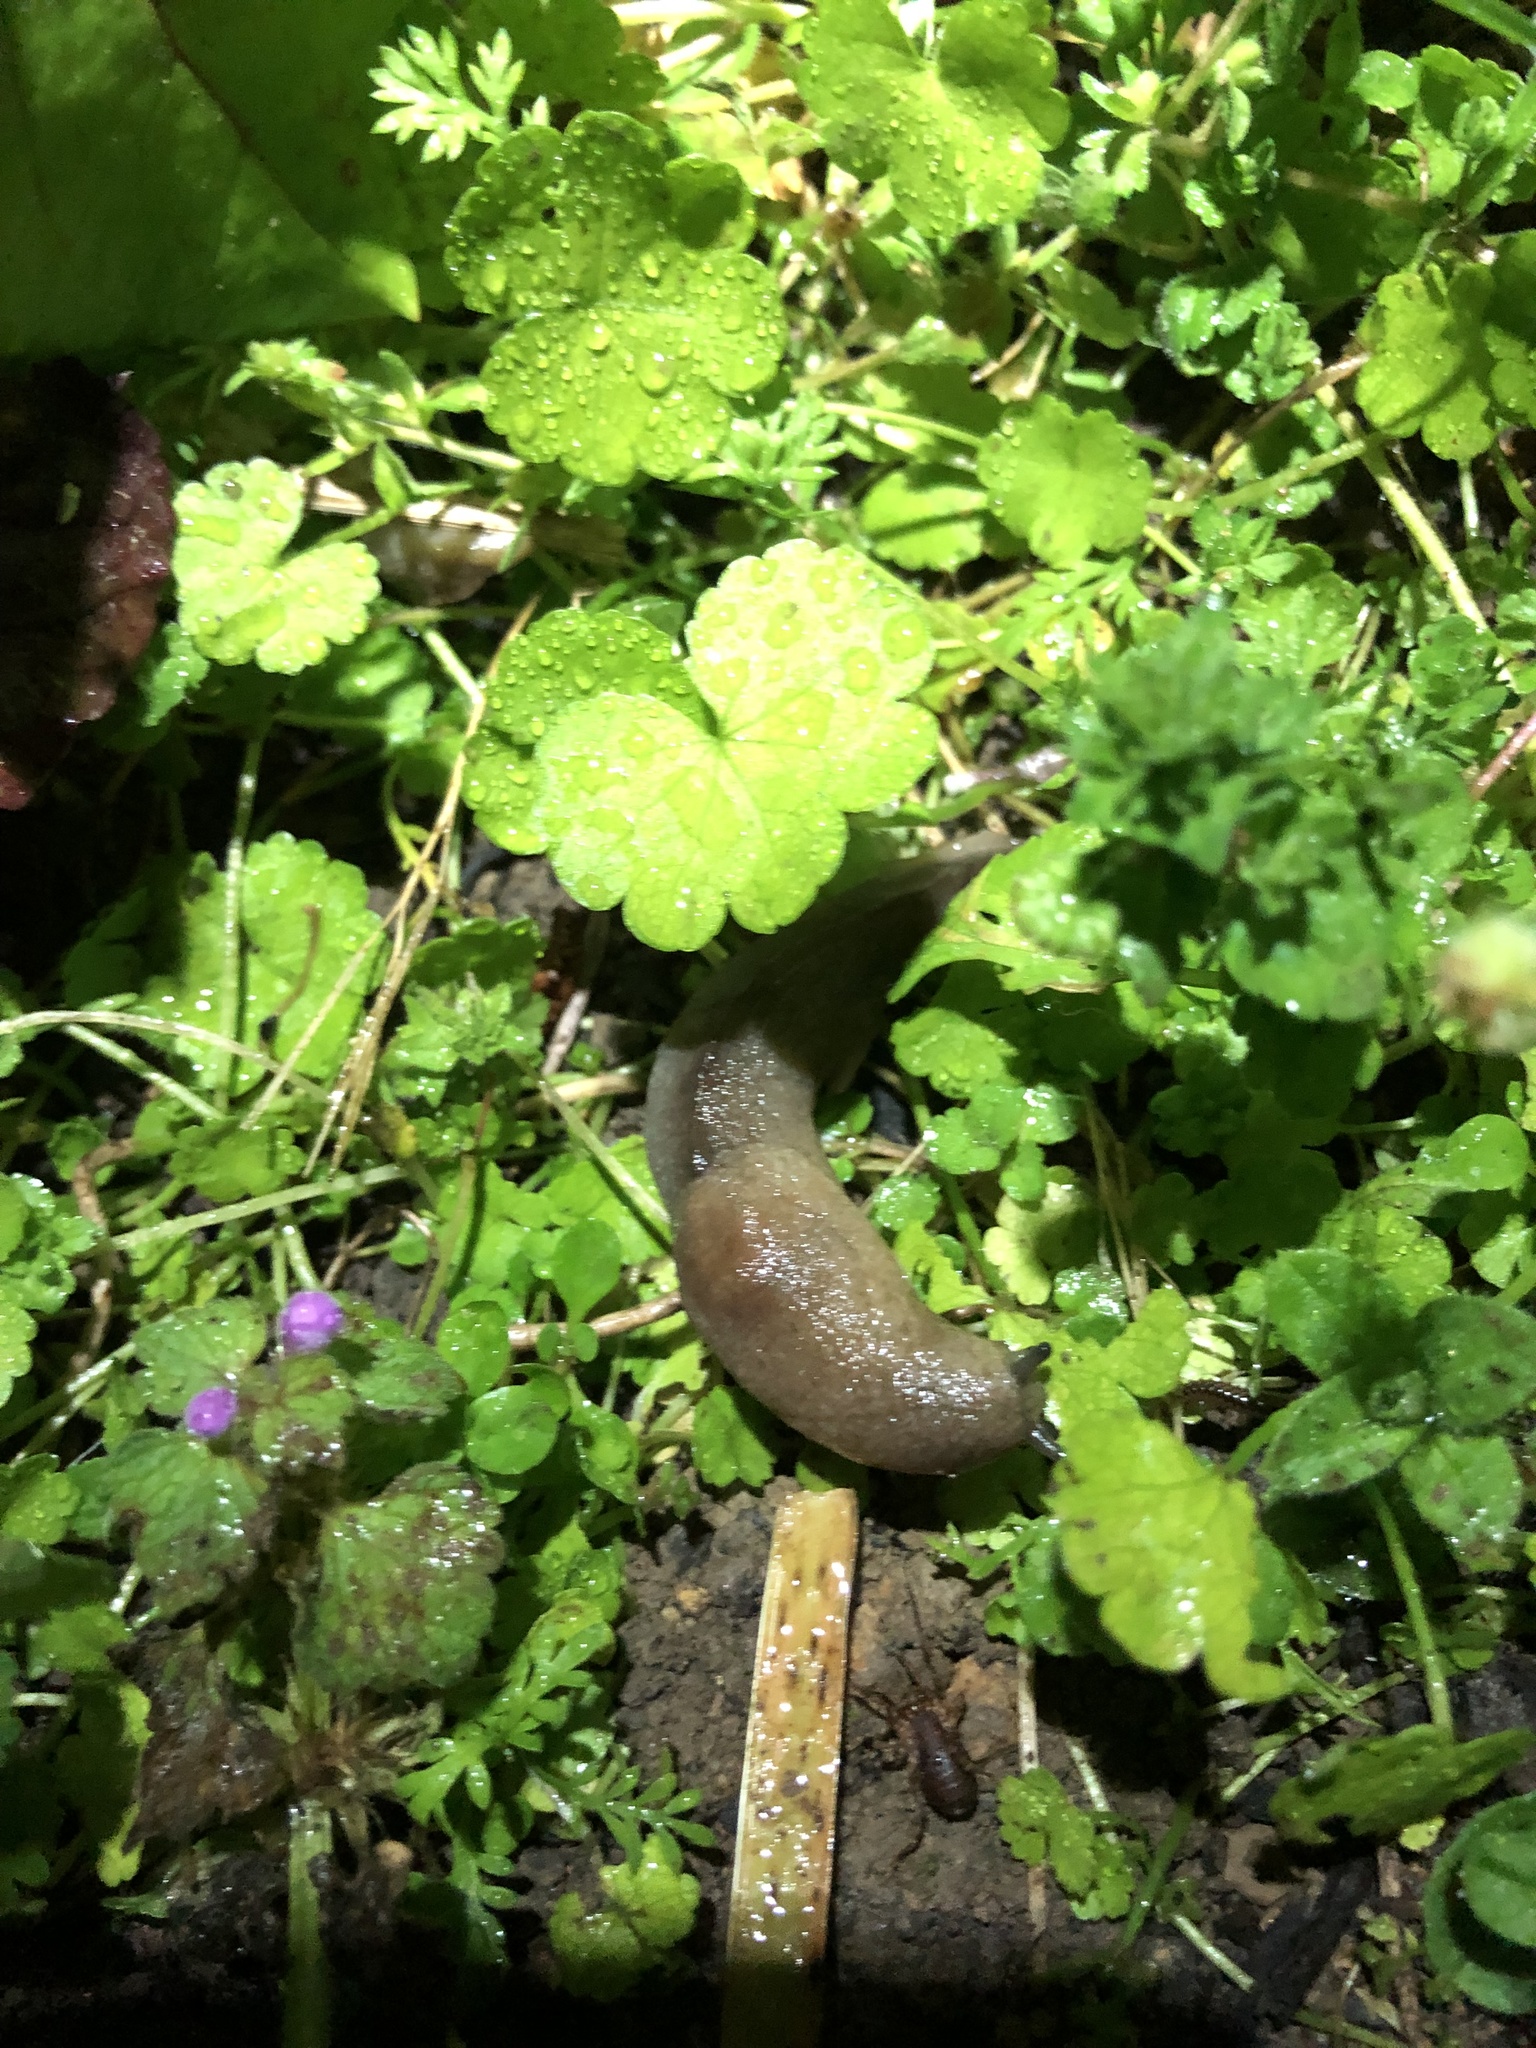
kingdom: Animalia
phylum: Mollusca
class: Gastropoda
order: Stylommatophora
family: Milacidae
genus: Milax
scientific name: Milax gagates
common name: Greenhouse slug
